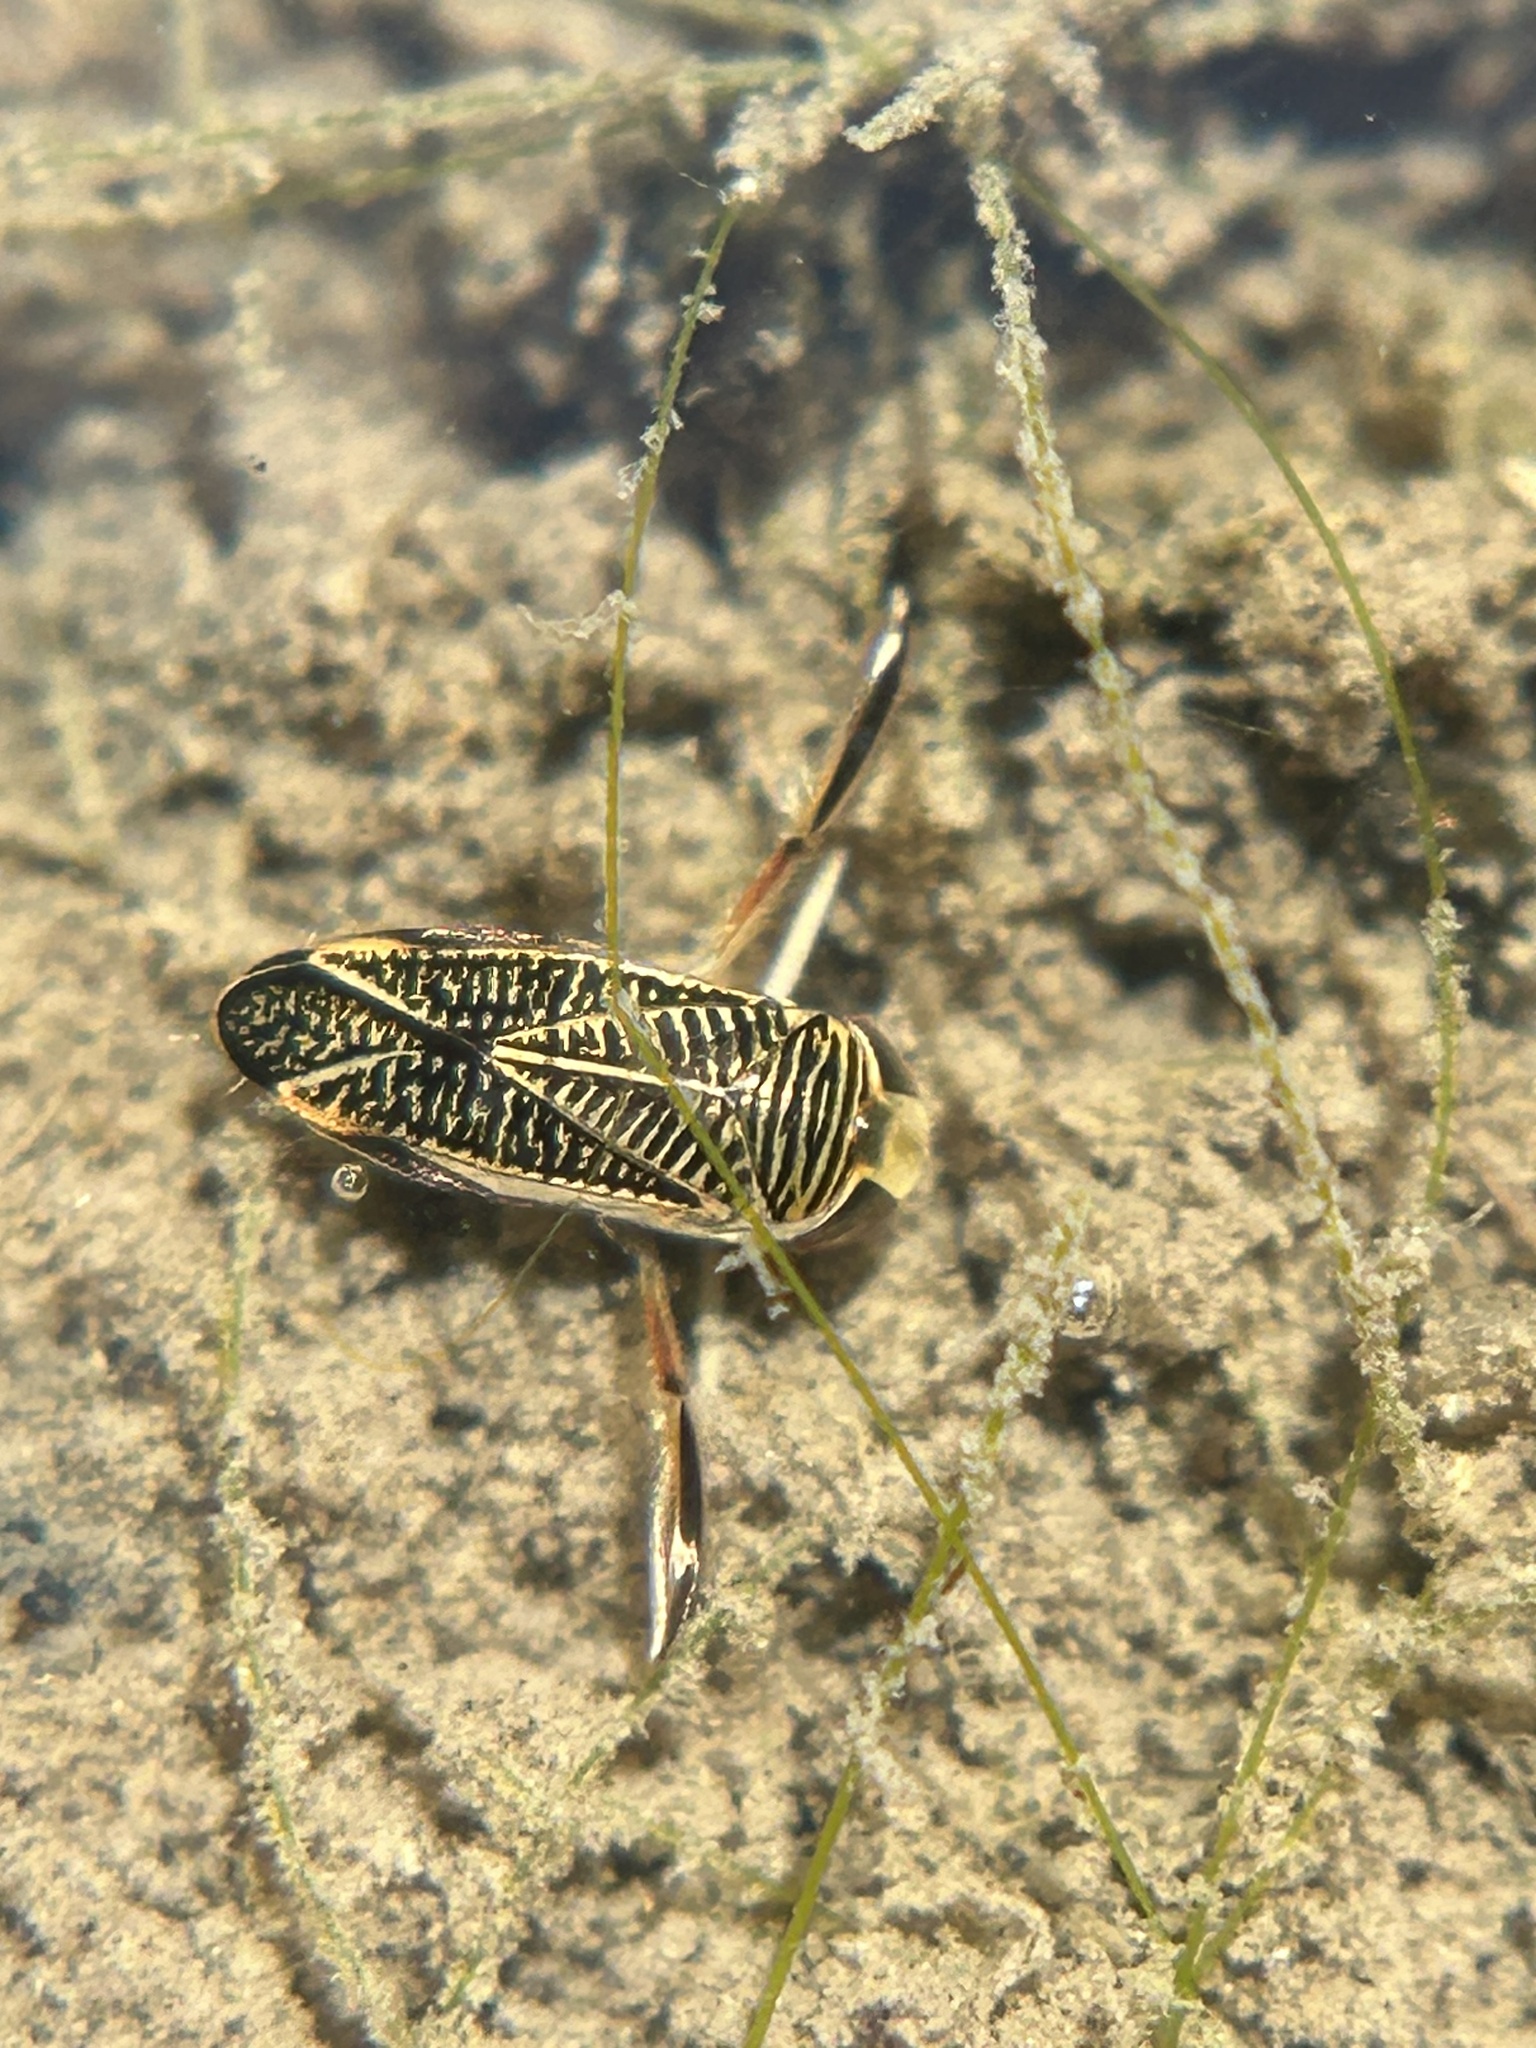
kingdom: Animalia
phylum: Arthropoda
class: Insecta
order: Hemiptera
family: Corixidae
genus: Sigara
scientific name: Sigara
